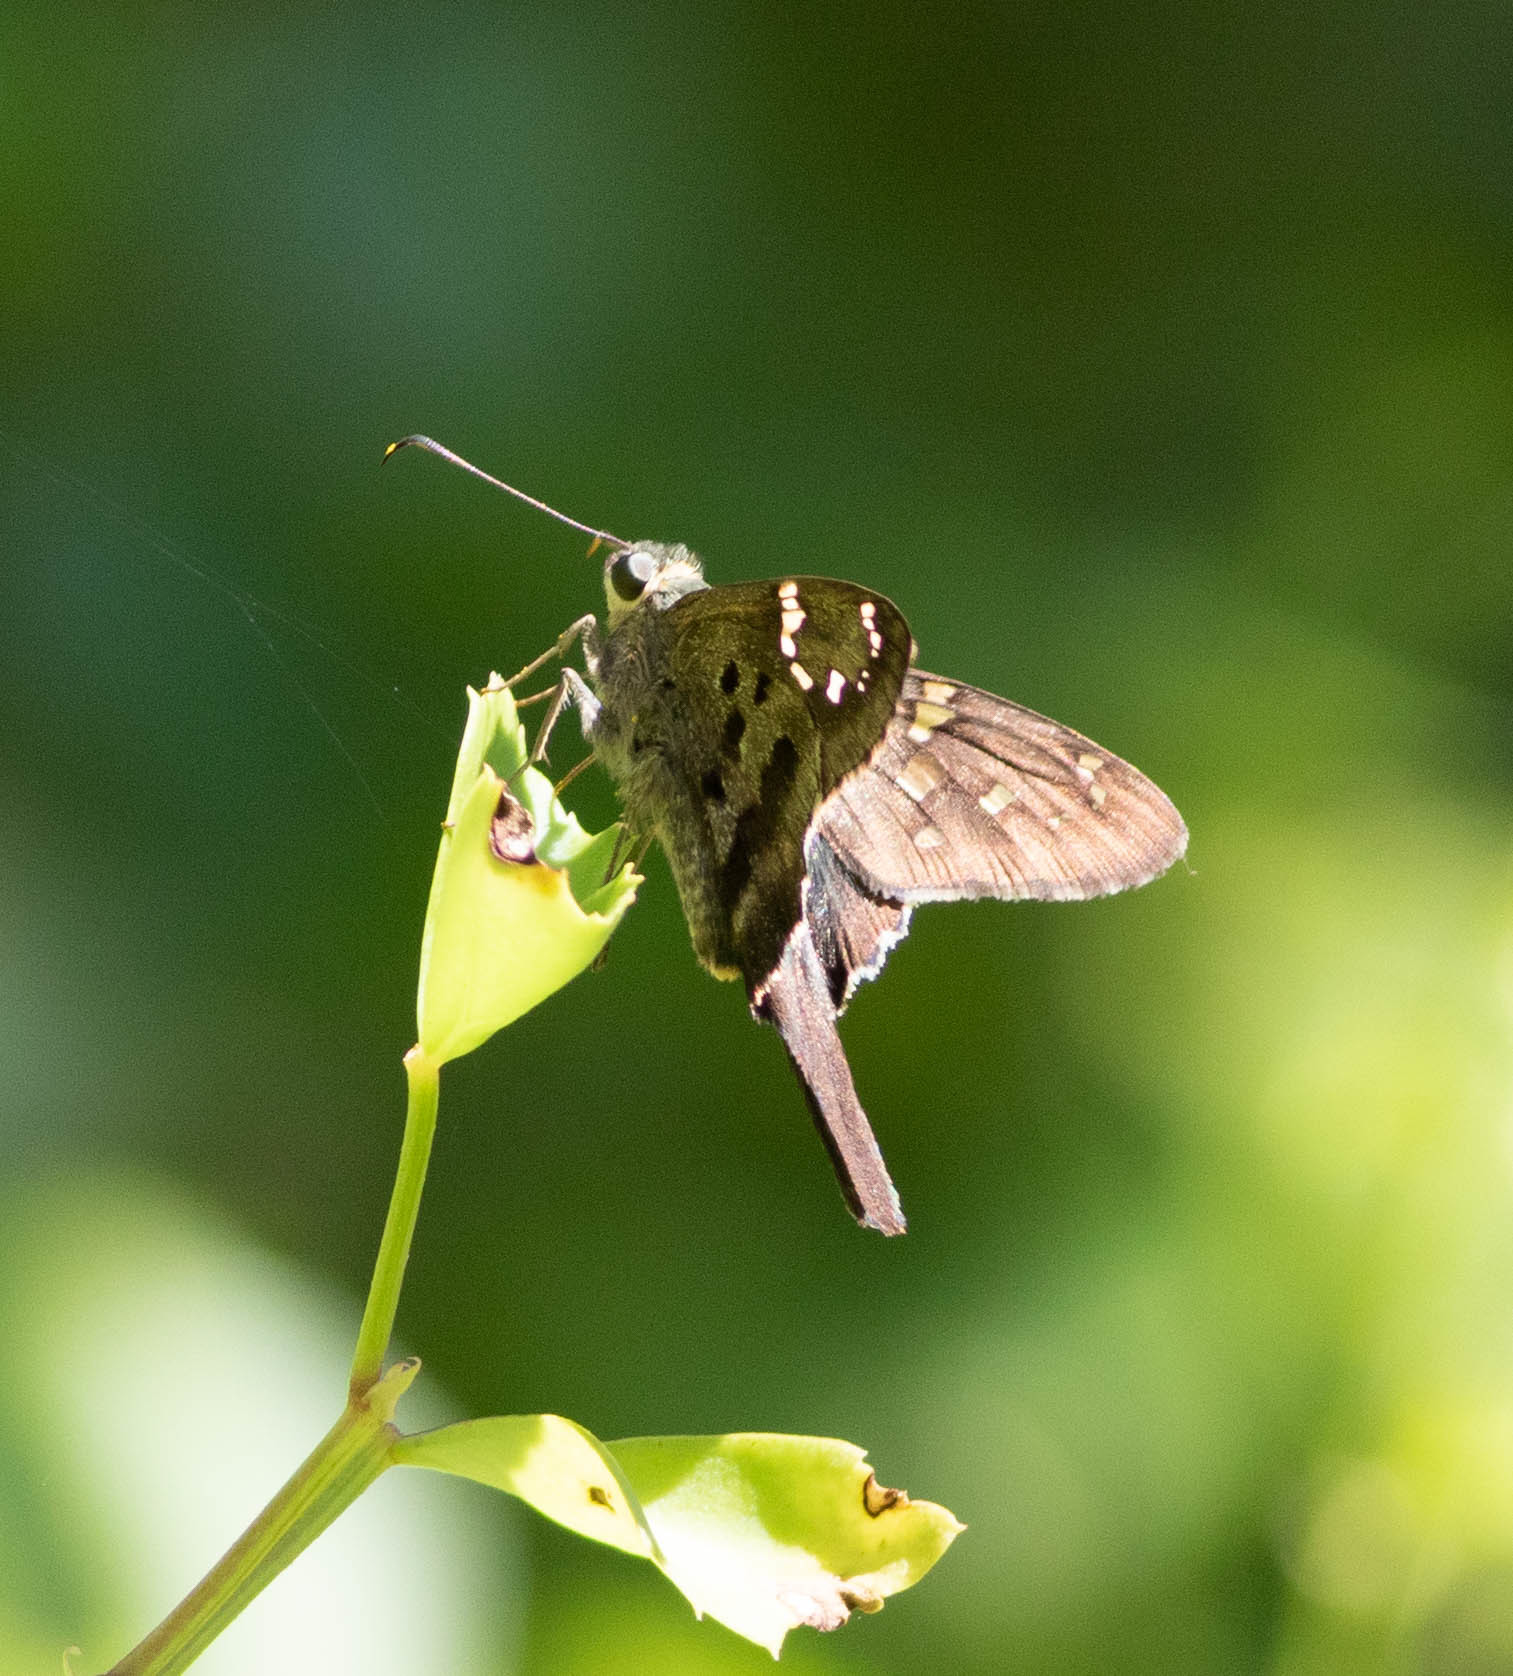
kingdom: Animalia
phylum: Arthropoda
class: Insecta
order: Lepidoptera
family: Hesperiidae
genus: Urbanus
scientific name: Urbanus proteus
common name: Long-tailed skipper
